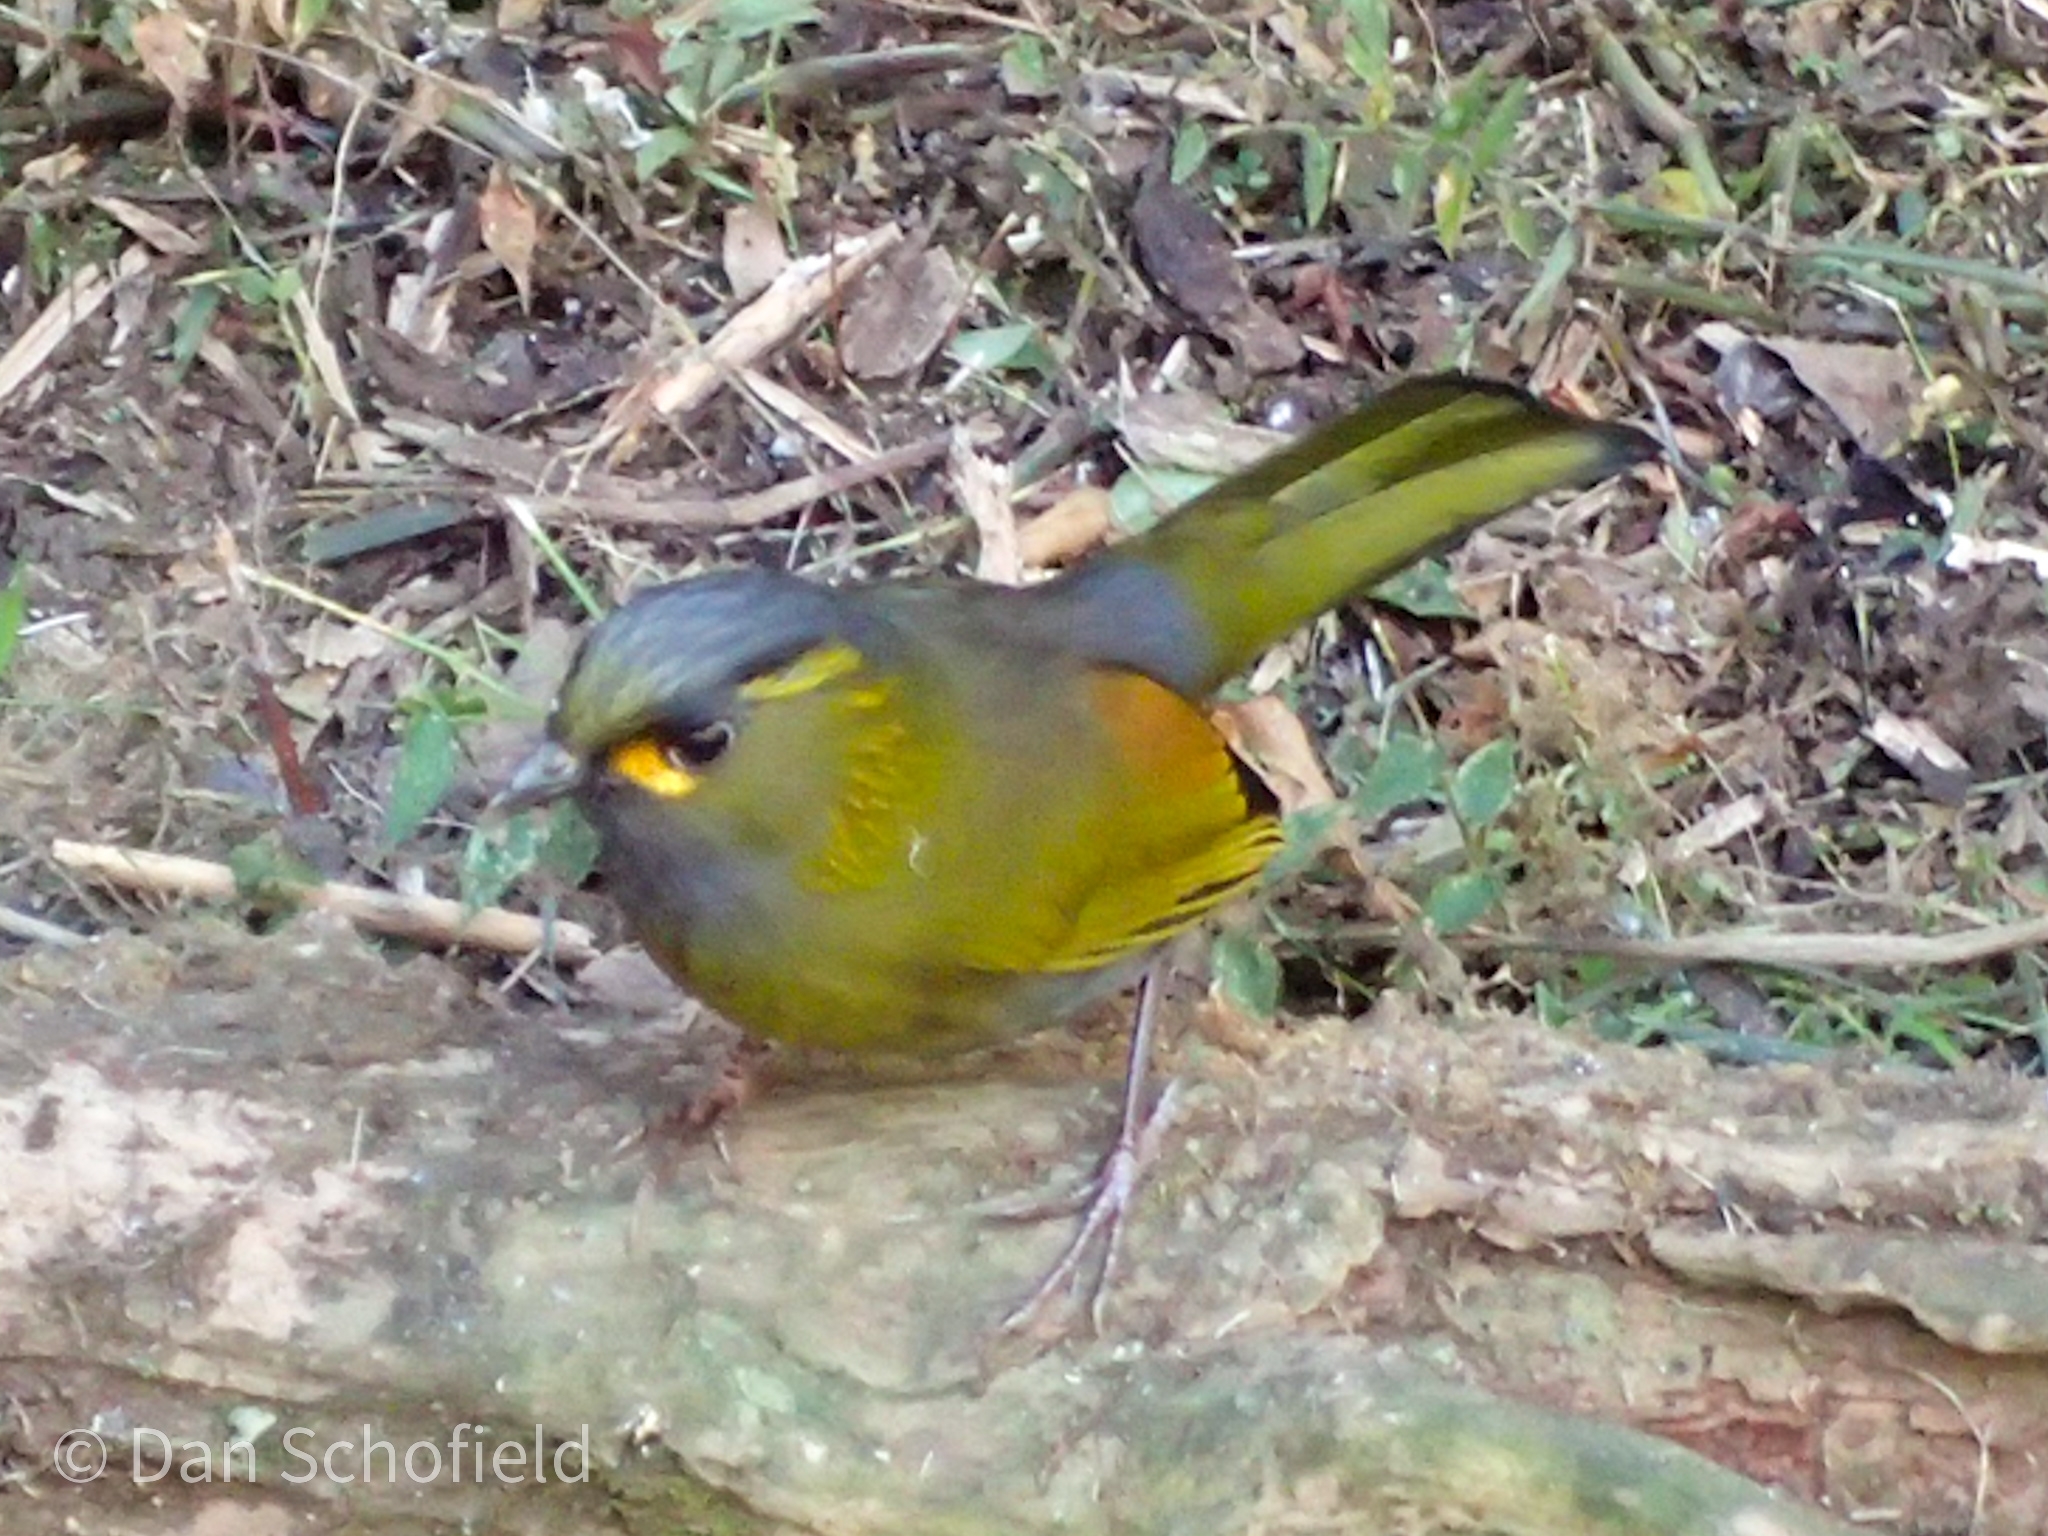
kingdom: Animalia
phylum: Chordata
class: Aves
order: Passeriformes
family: Leiothrichidae
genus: Liocichla
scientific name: Liocichla steerii
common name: Steere's liocichla
